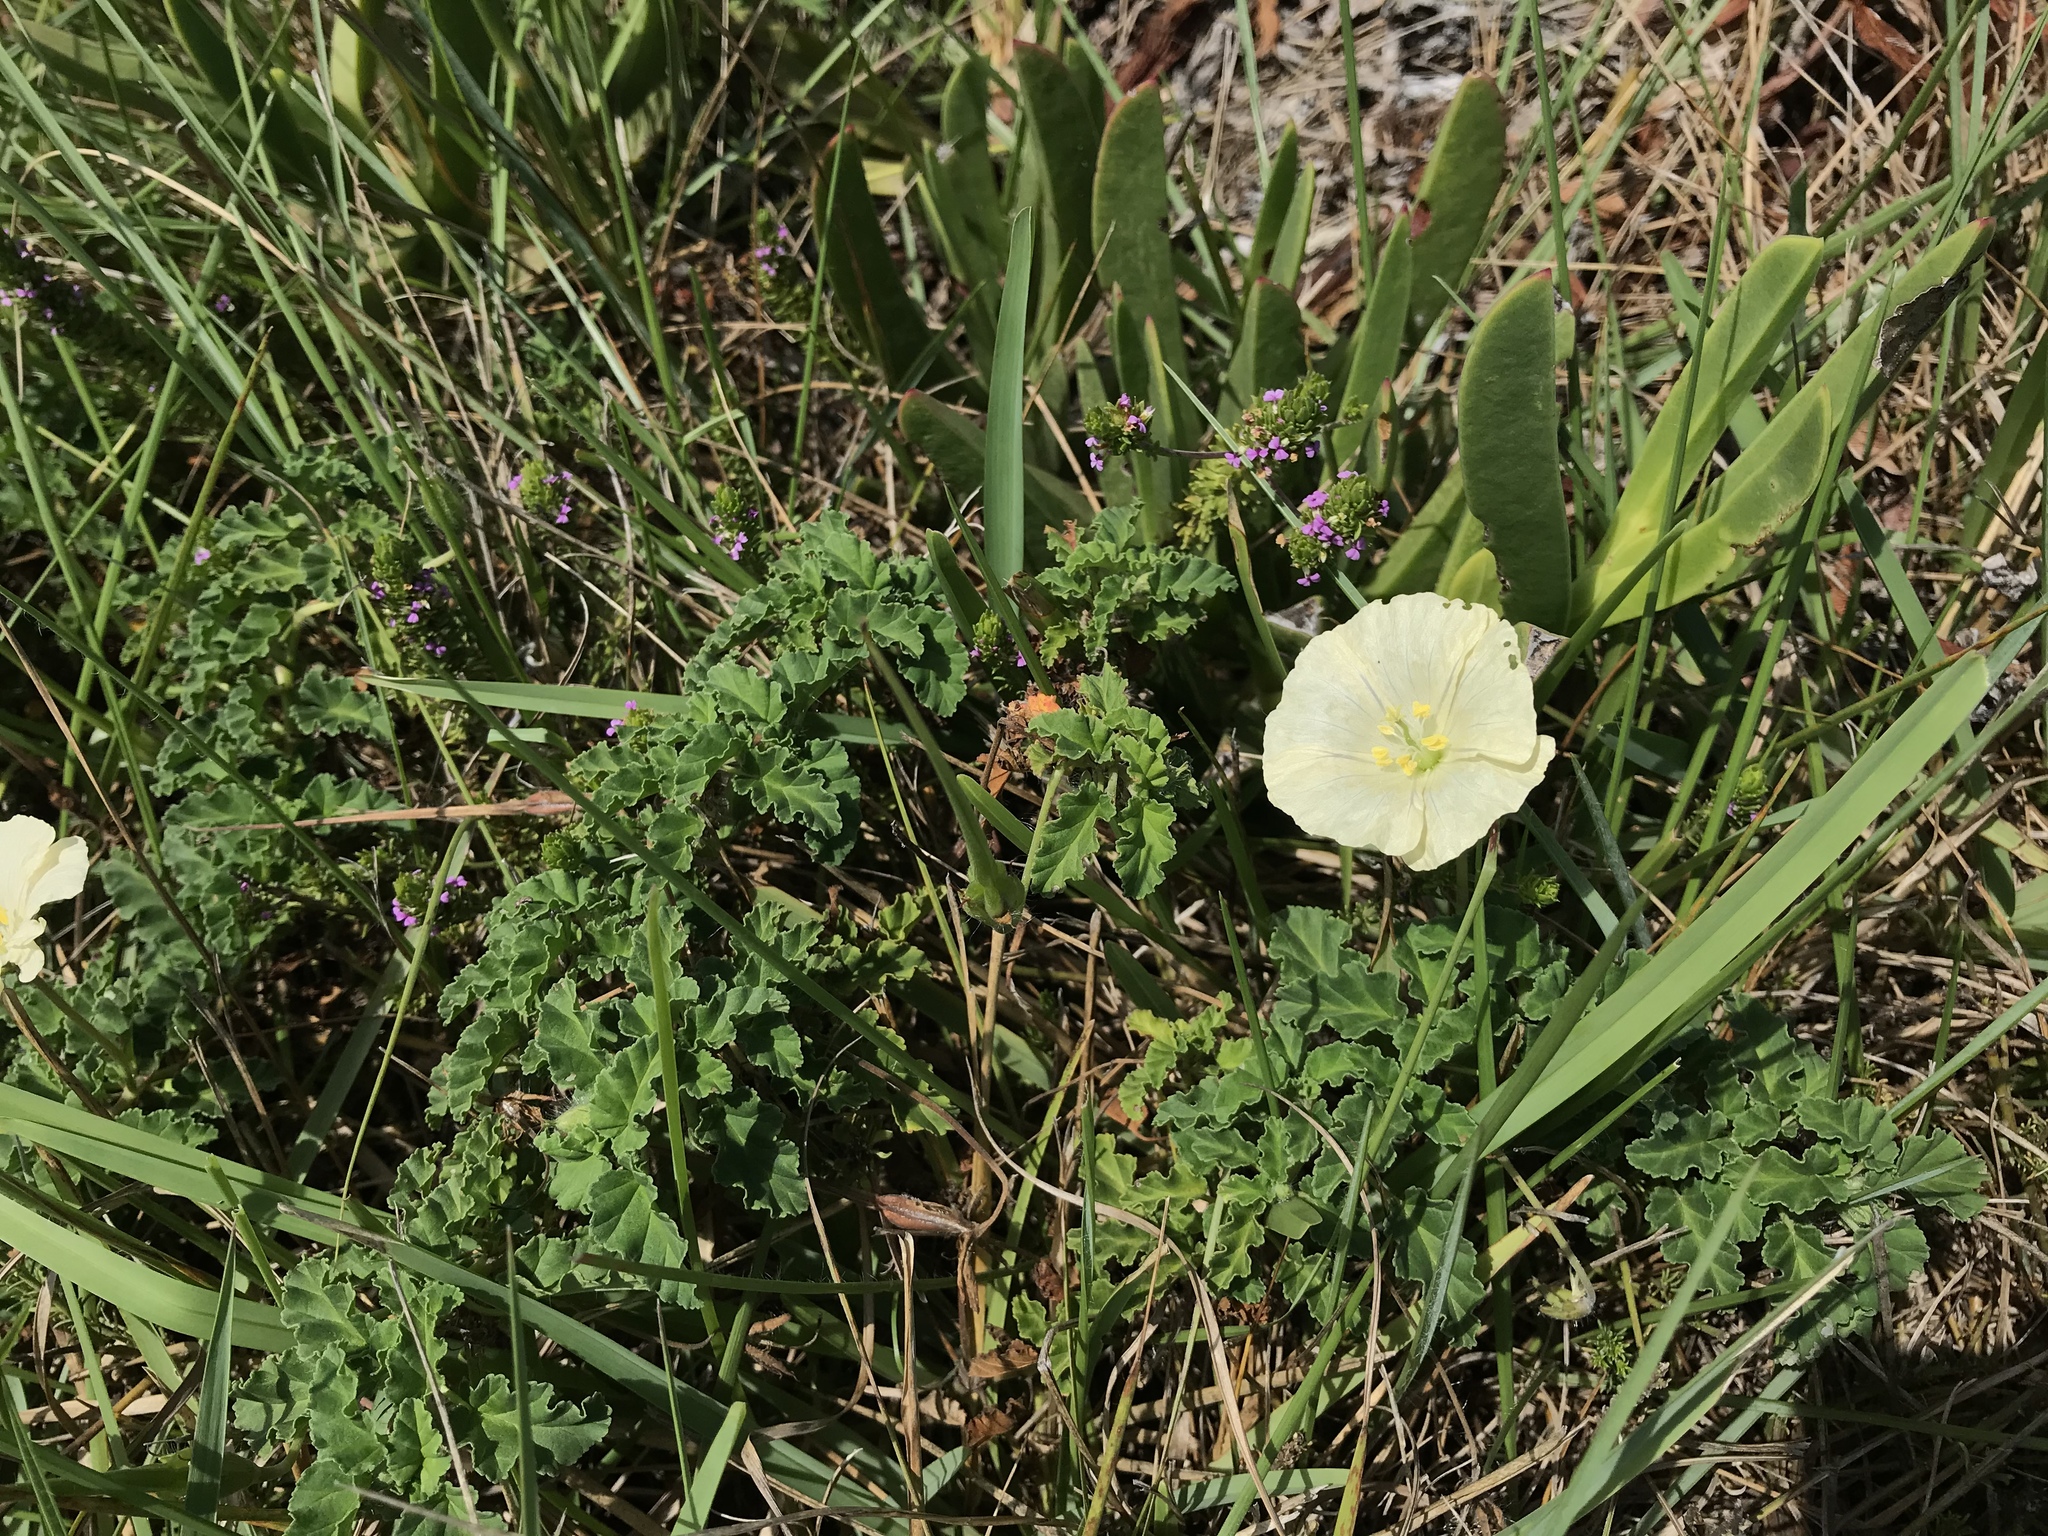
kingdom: Plantae
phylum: Tracheophyta
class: Magnoliopsida
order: Geraniales
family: Geraniaceae
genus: Monsonia
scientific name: Monsonia emarginata
